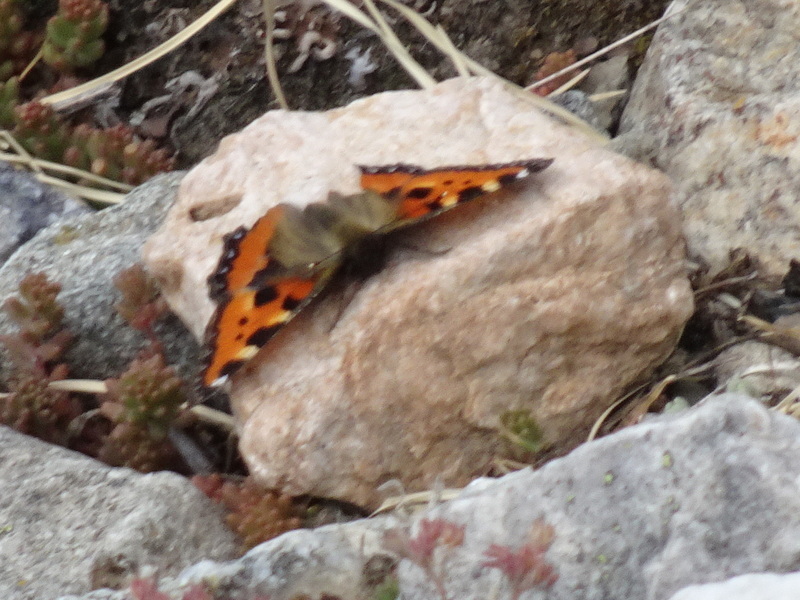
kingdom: Animalia
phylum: Arthropoda
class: Insecta
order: Lepidoptera
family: Nymphalidae
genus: Aglais
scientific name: Aglais urticae
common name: Small tortoiseshell
